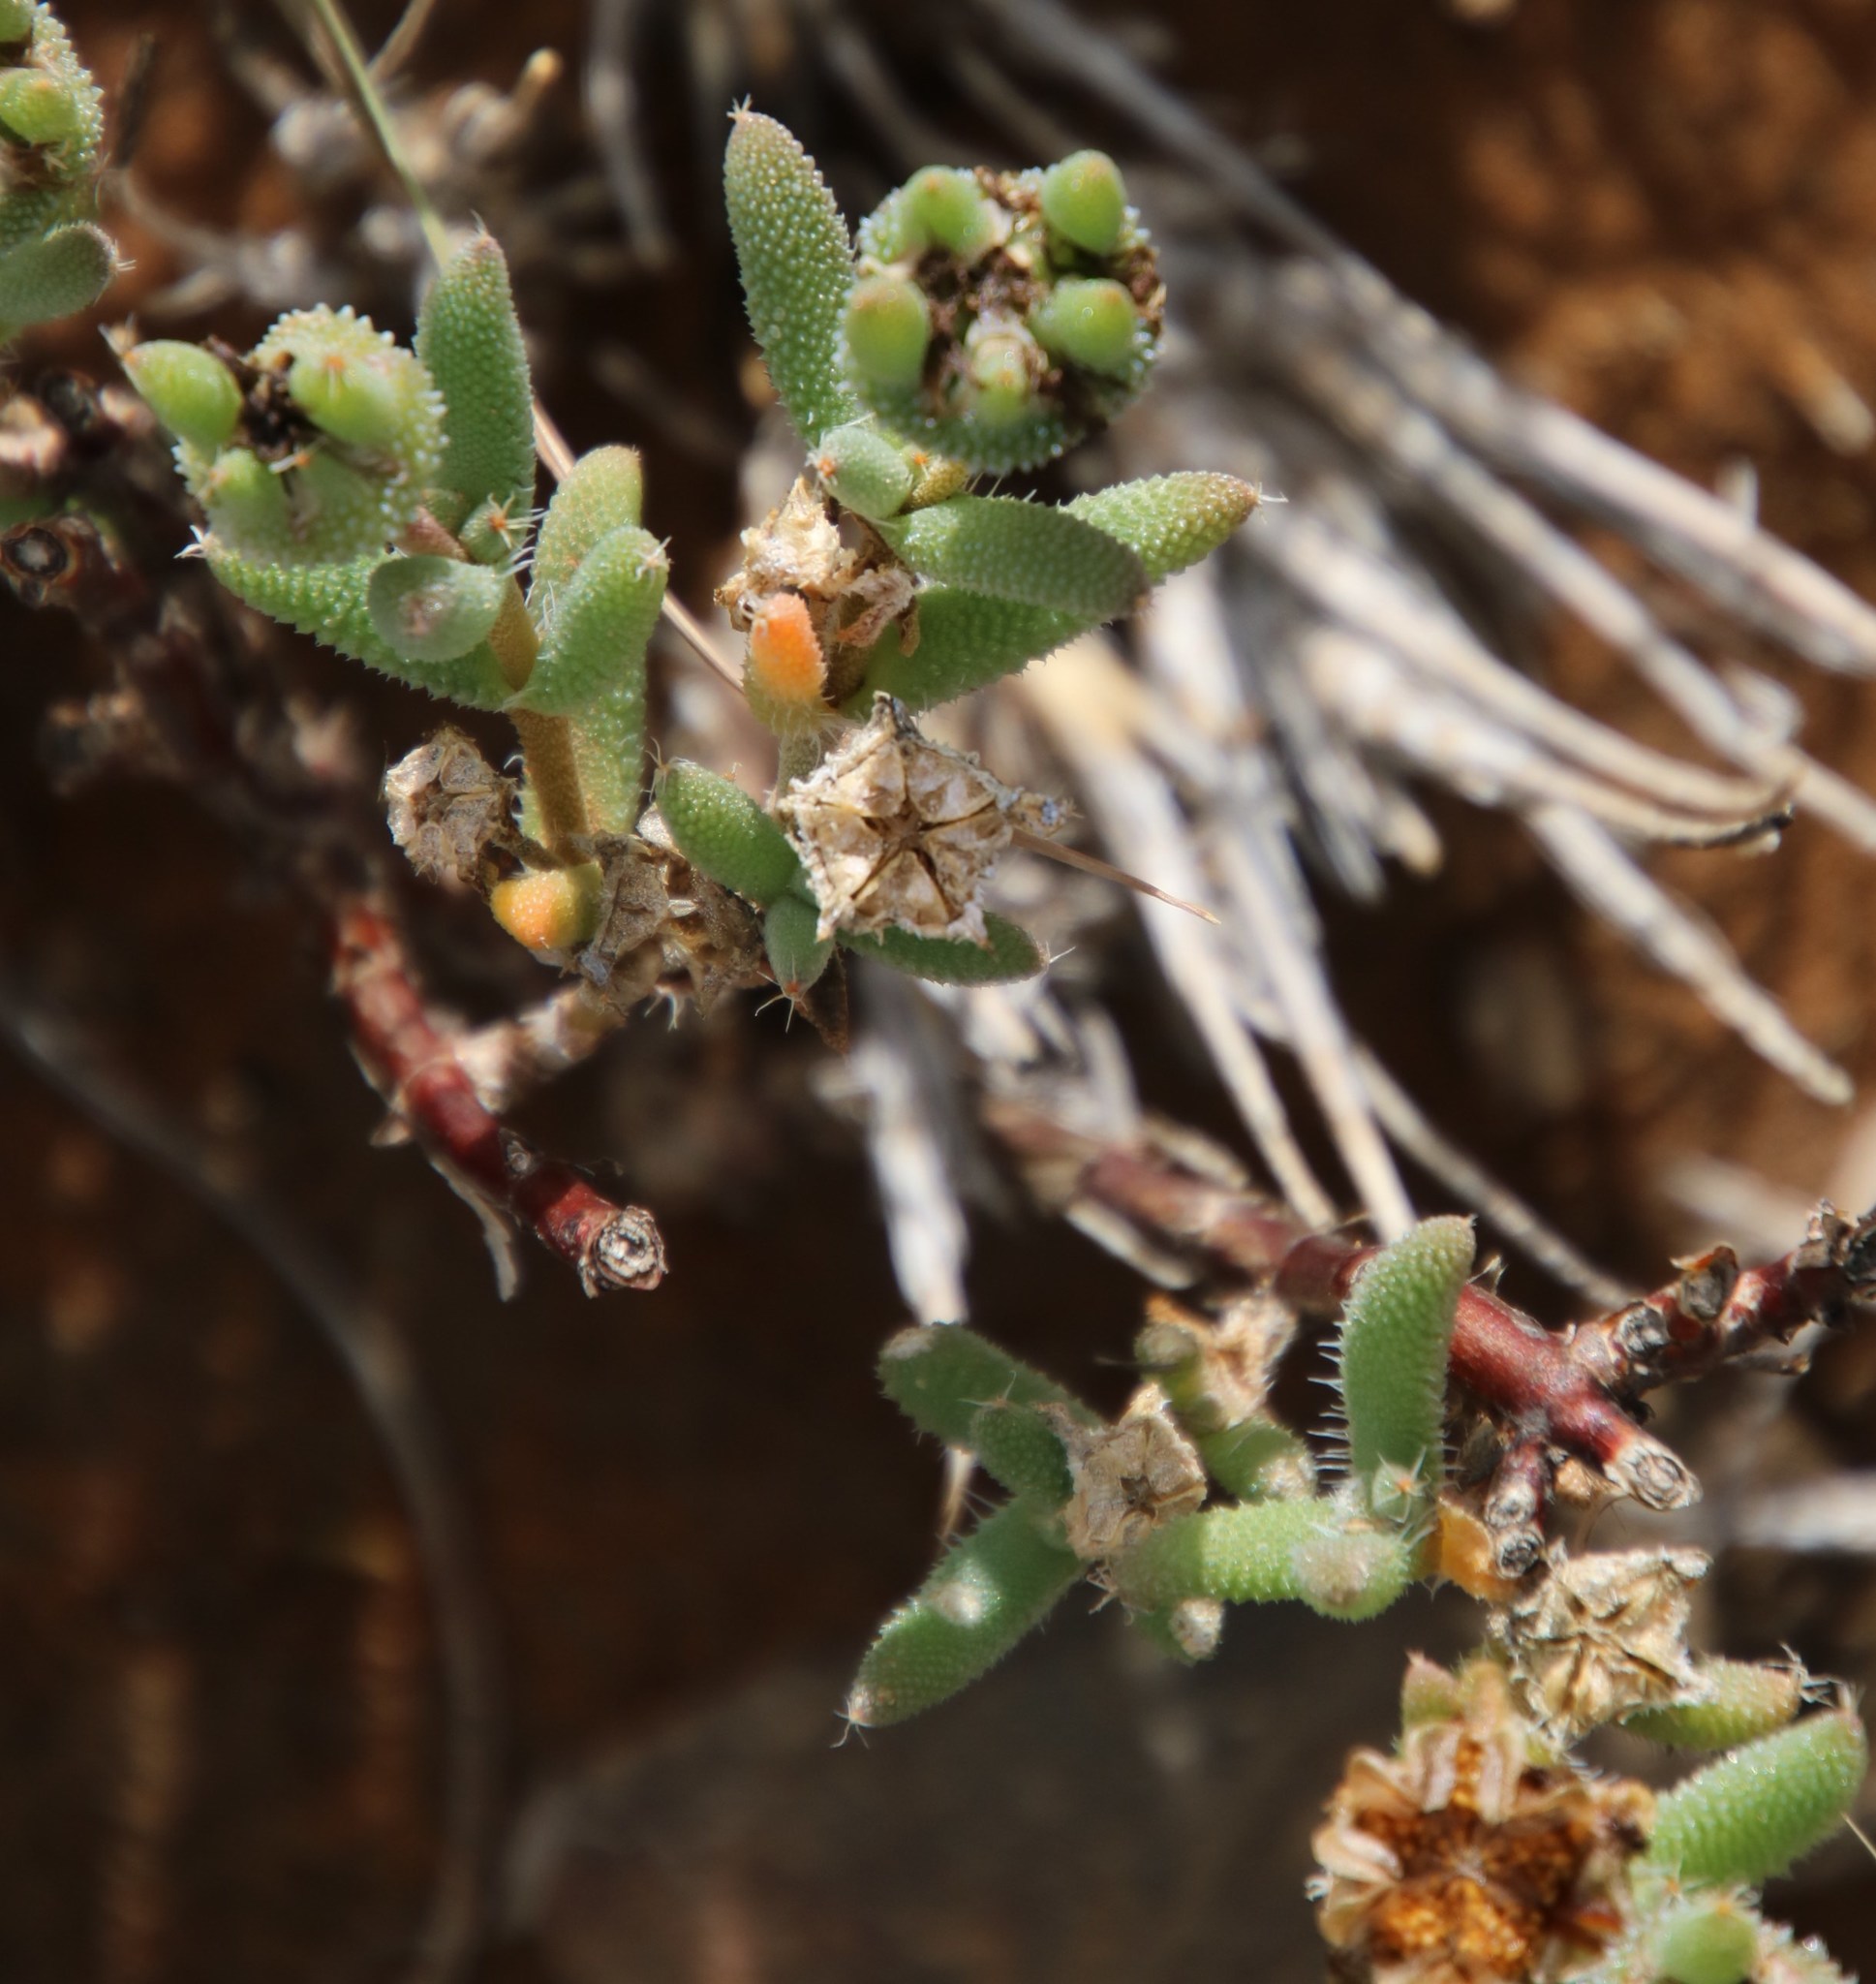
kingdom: Plantae
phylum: Tracheophyta
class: Magnoliopsida
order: Caryophyllales
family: Aizoaceae
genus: Trichodiadema
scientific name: Trichodiadema pomeridianum
